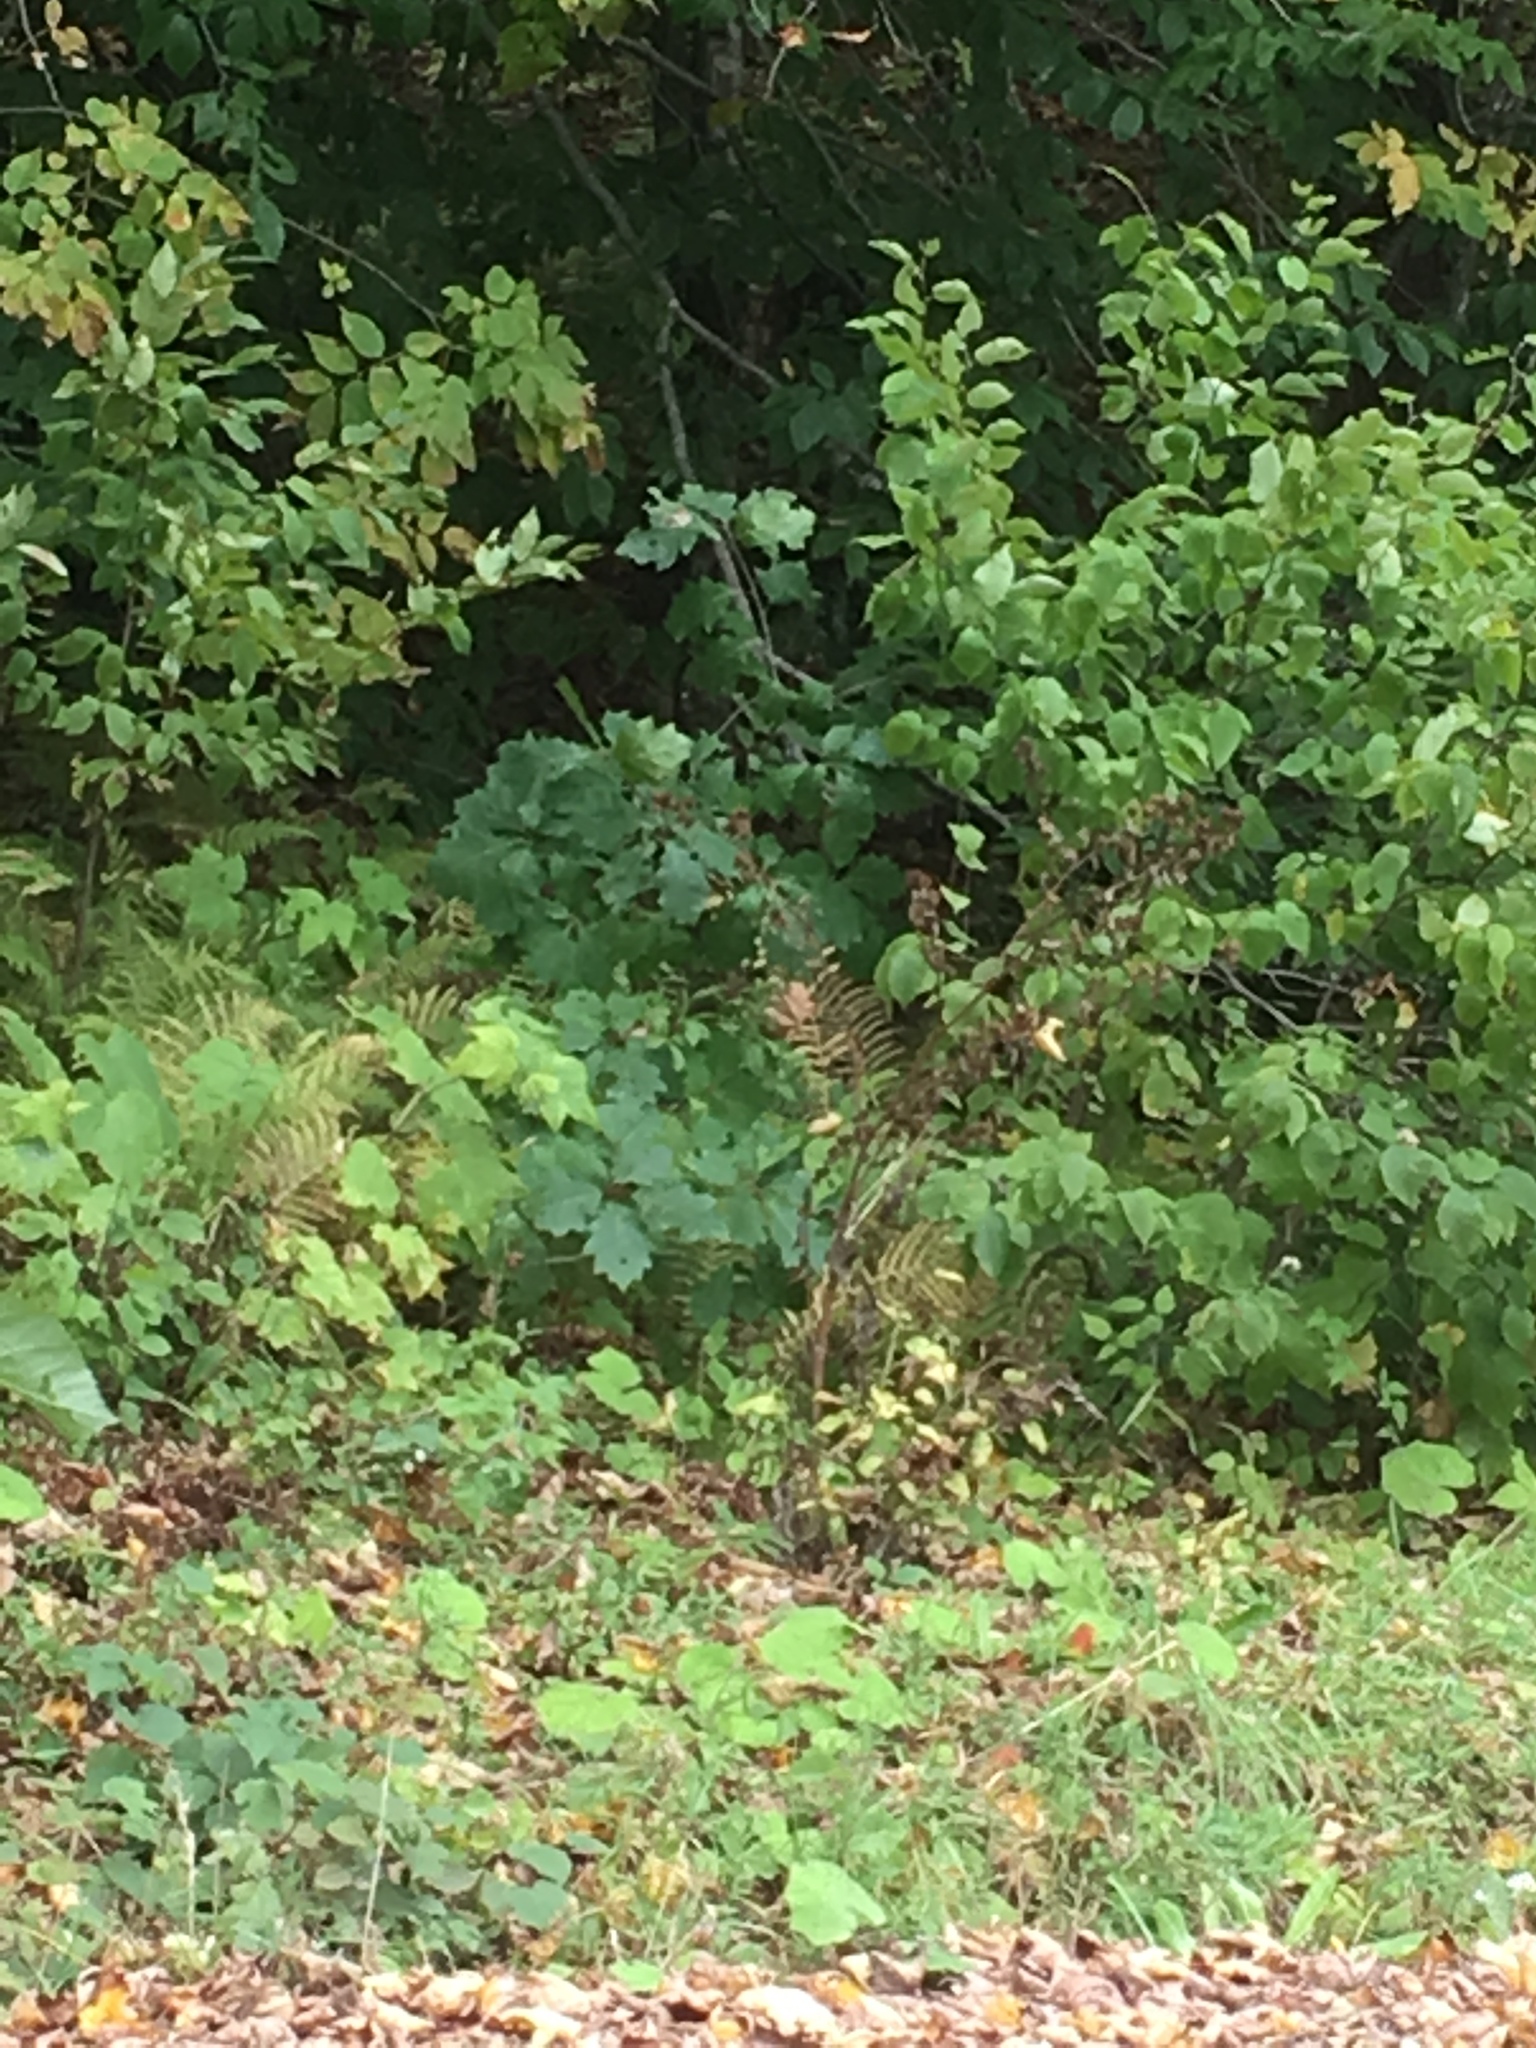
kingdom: Plantae
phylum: Tracheophyta
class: Magnoliopsida
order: Fagales
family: Fagaceae
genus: Quercus
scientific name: Quercus rubra
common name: Red oak
